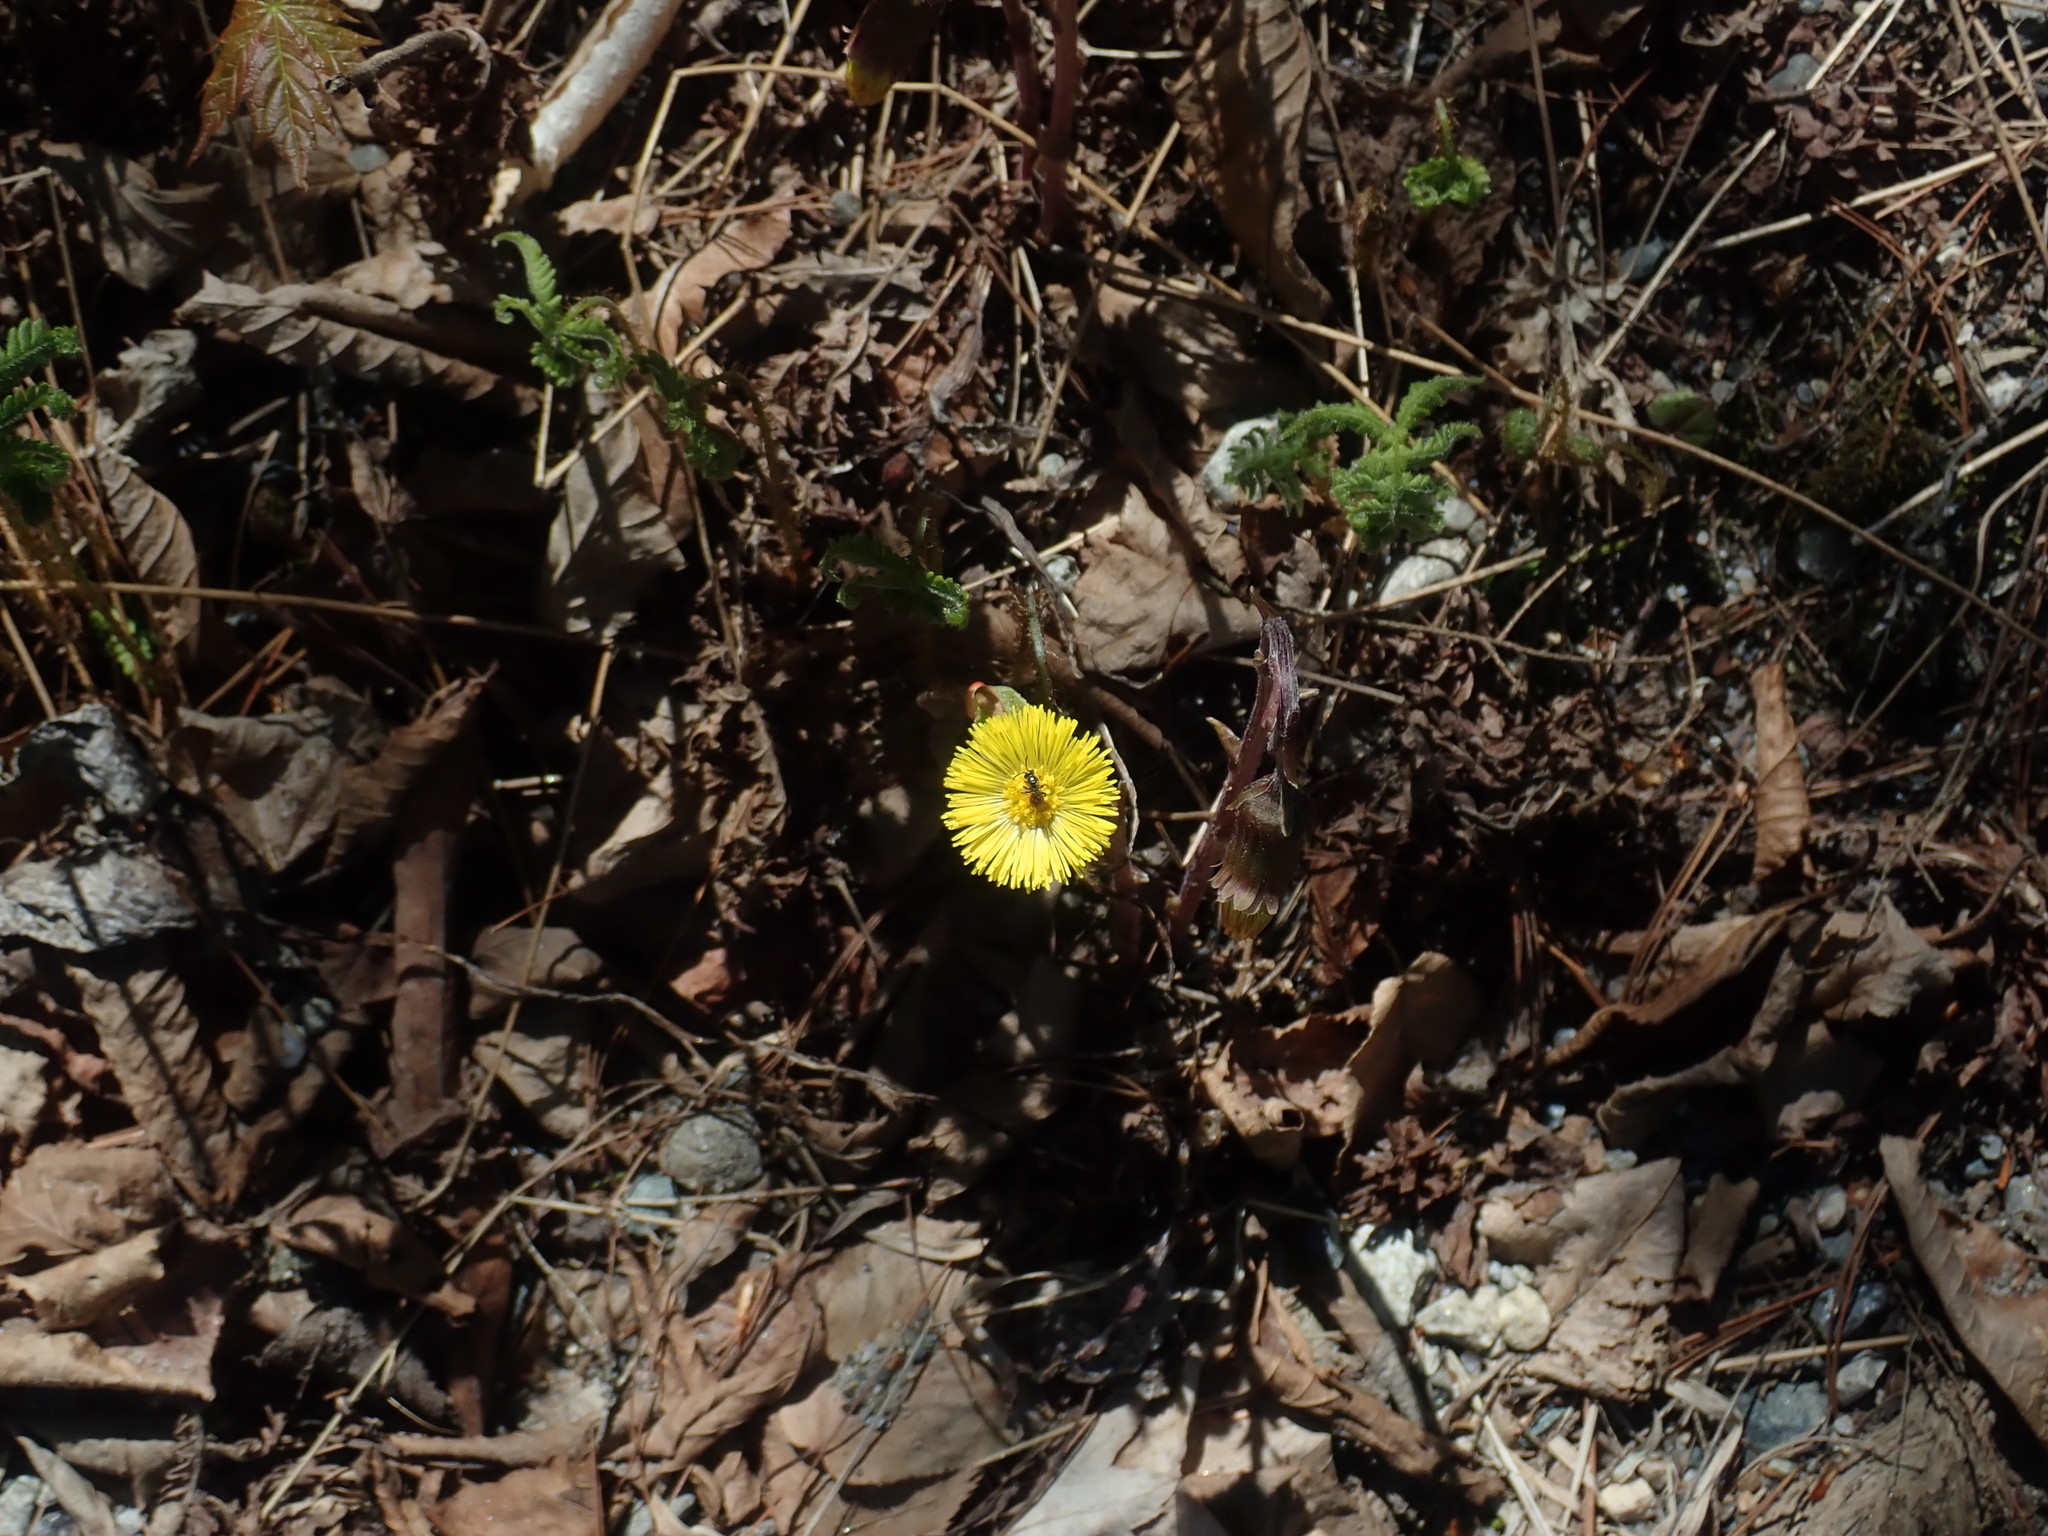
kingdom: Plantae
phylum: Tracheophyta
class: Magnoliopsida
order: Asterales
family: Asteraceae
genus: Tussilago
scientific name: Tussilago farfara
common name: Coltsfoot
